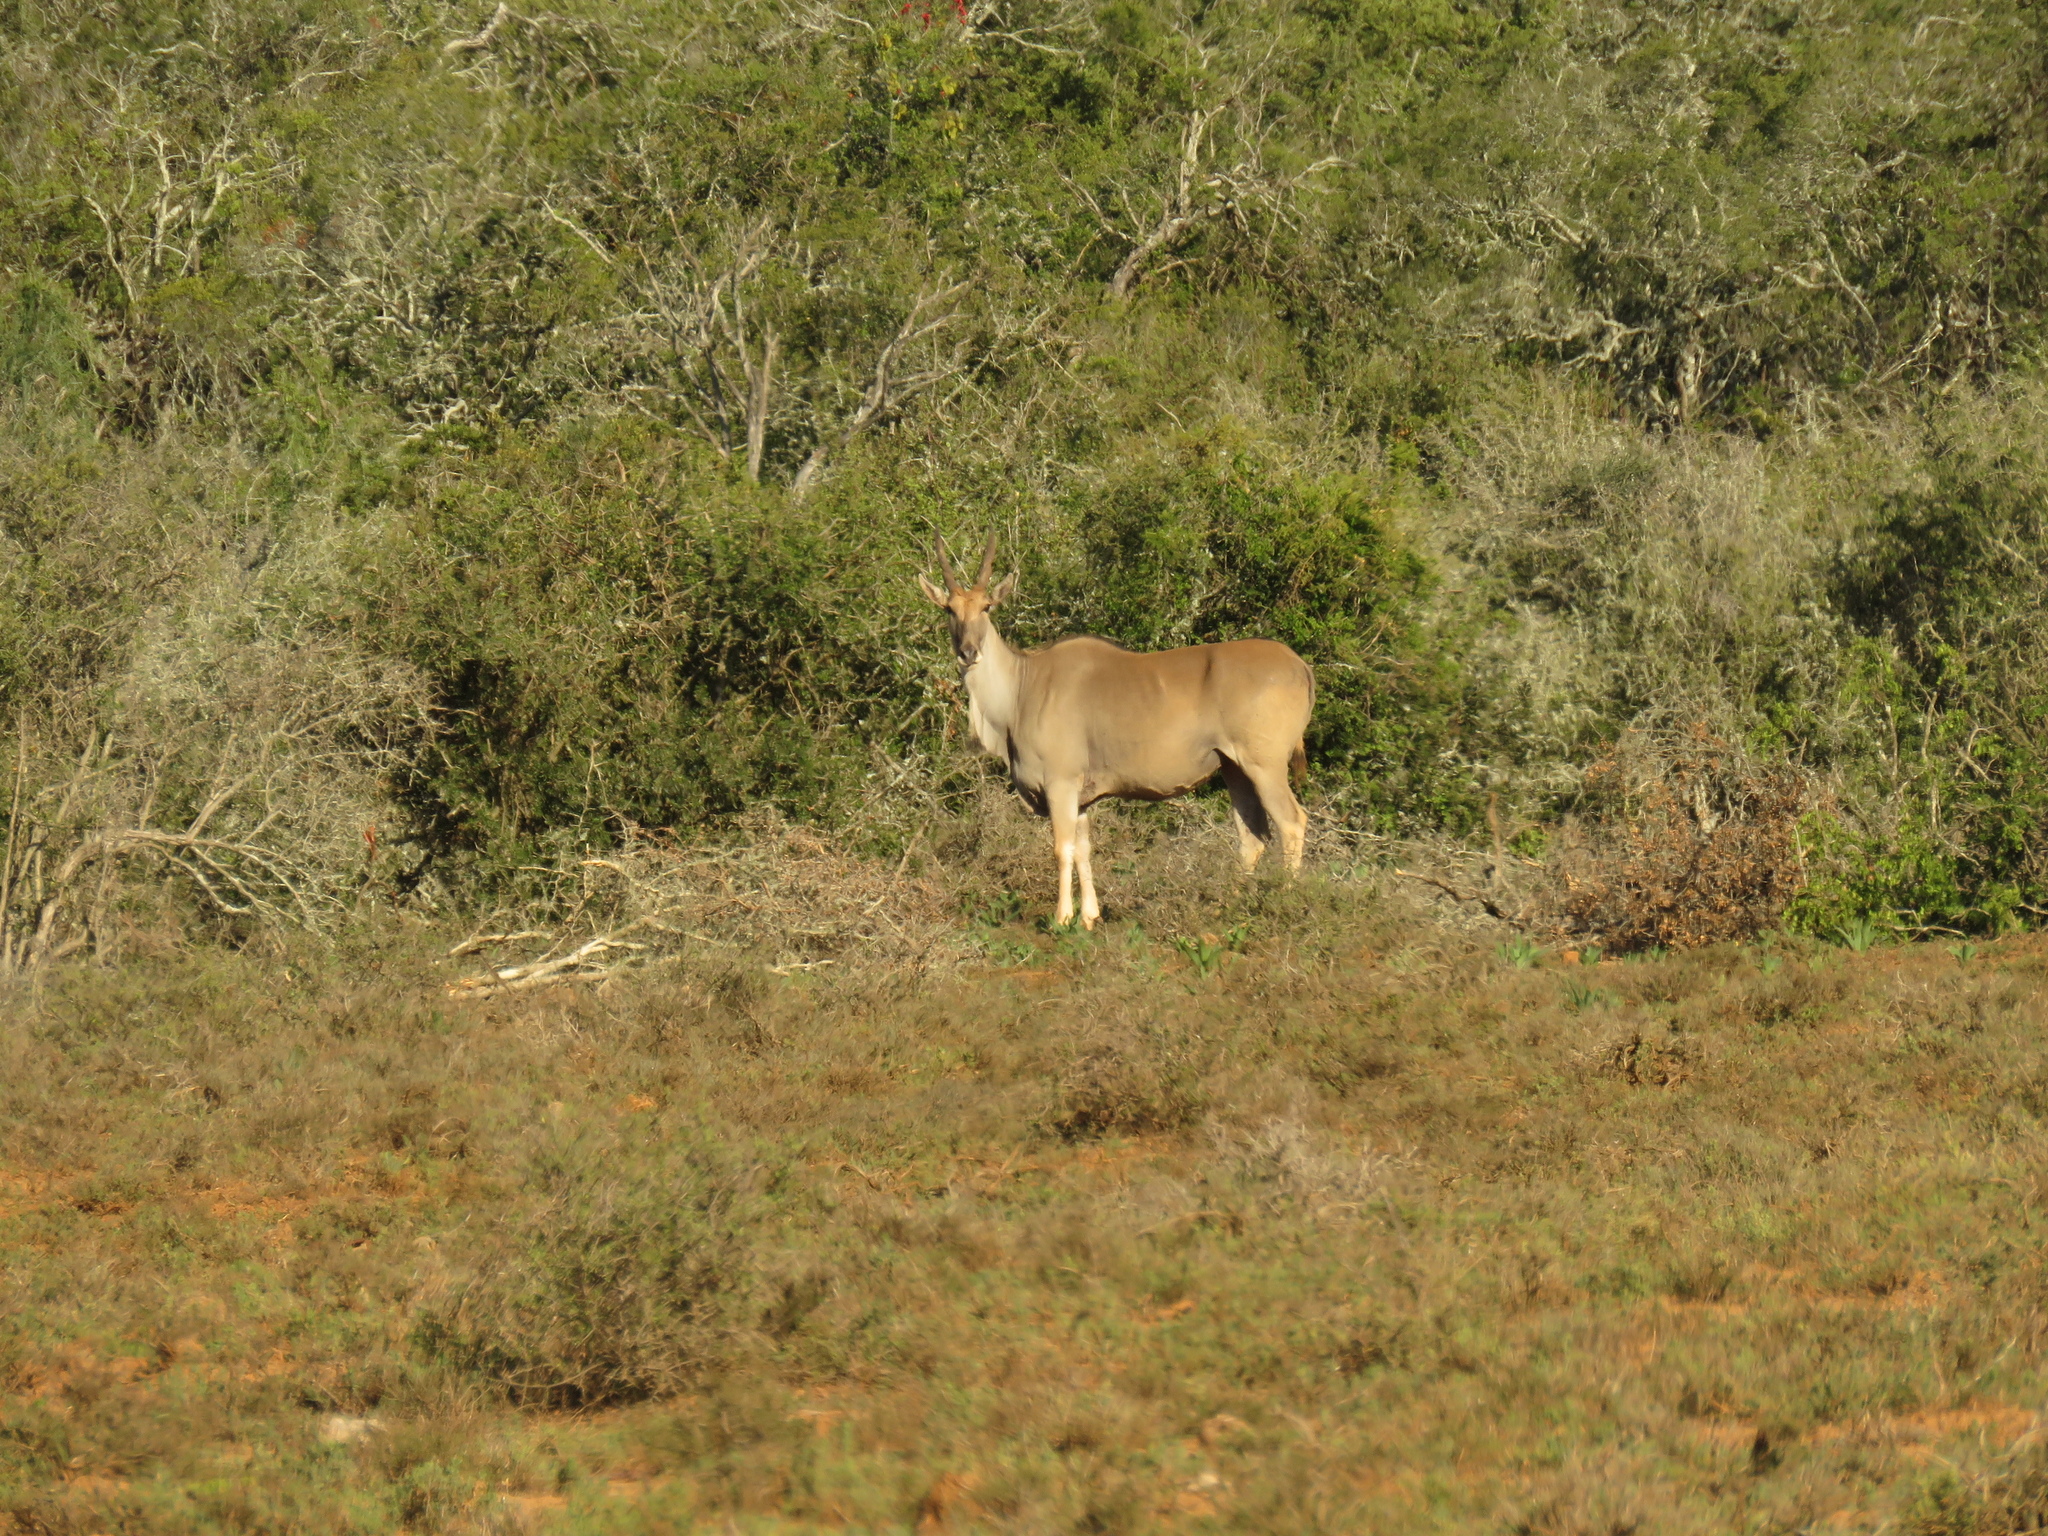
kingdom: Animalia
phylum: Chordata
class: Mammalia
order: Artiodactyla
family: Bovidae
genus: Taurotragus
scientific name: Taurotragus oryx
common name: Common eland
